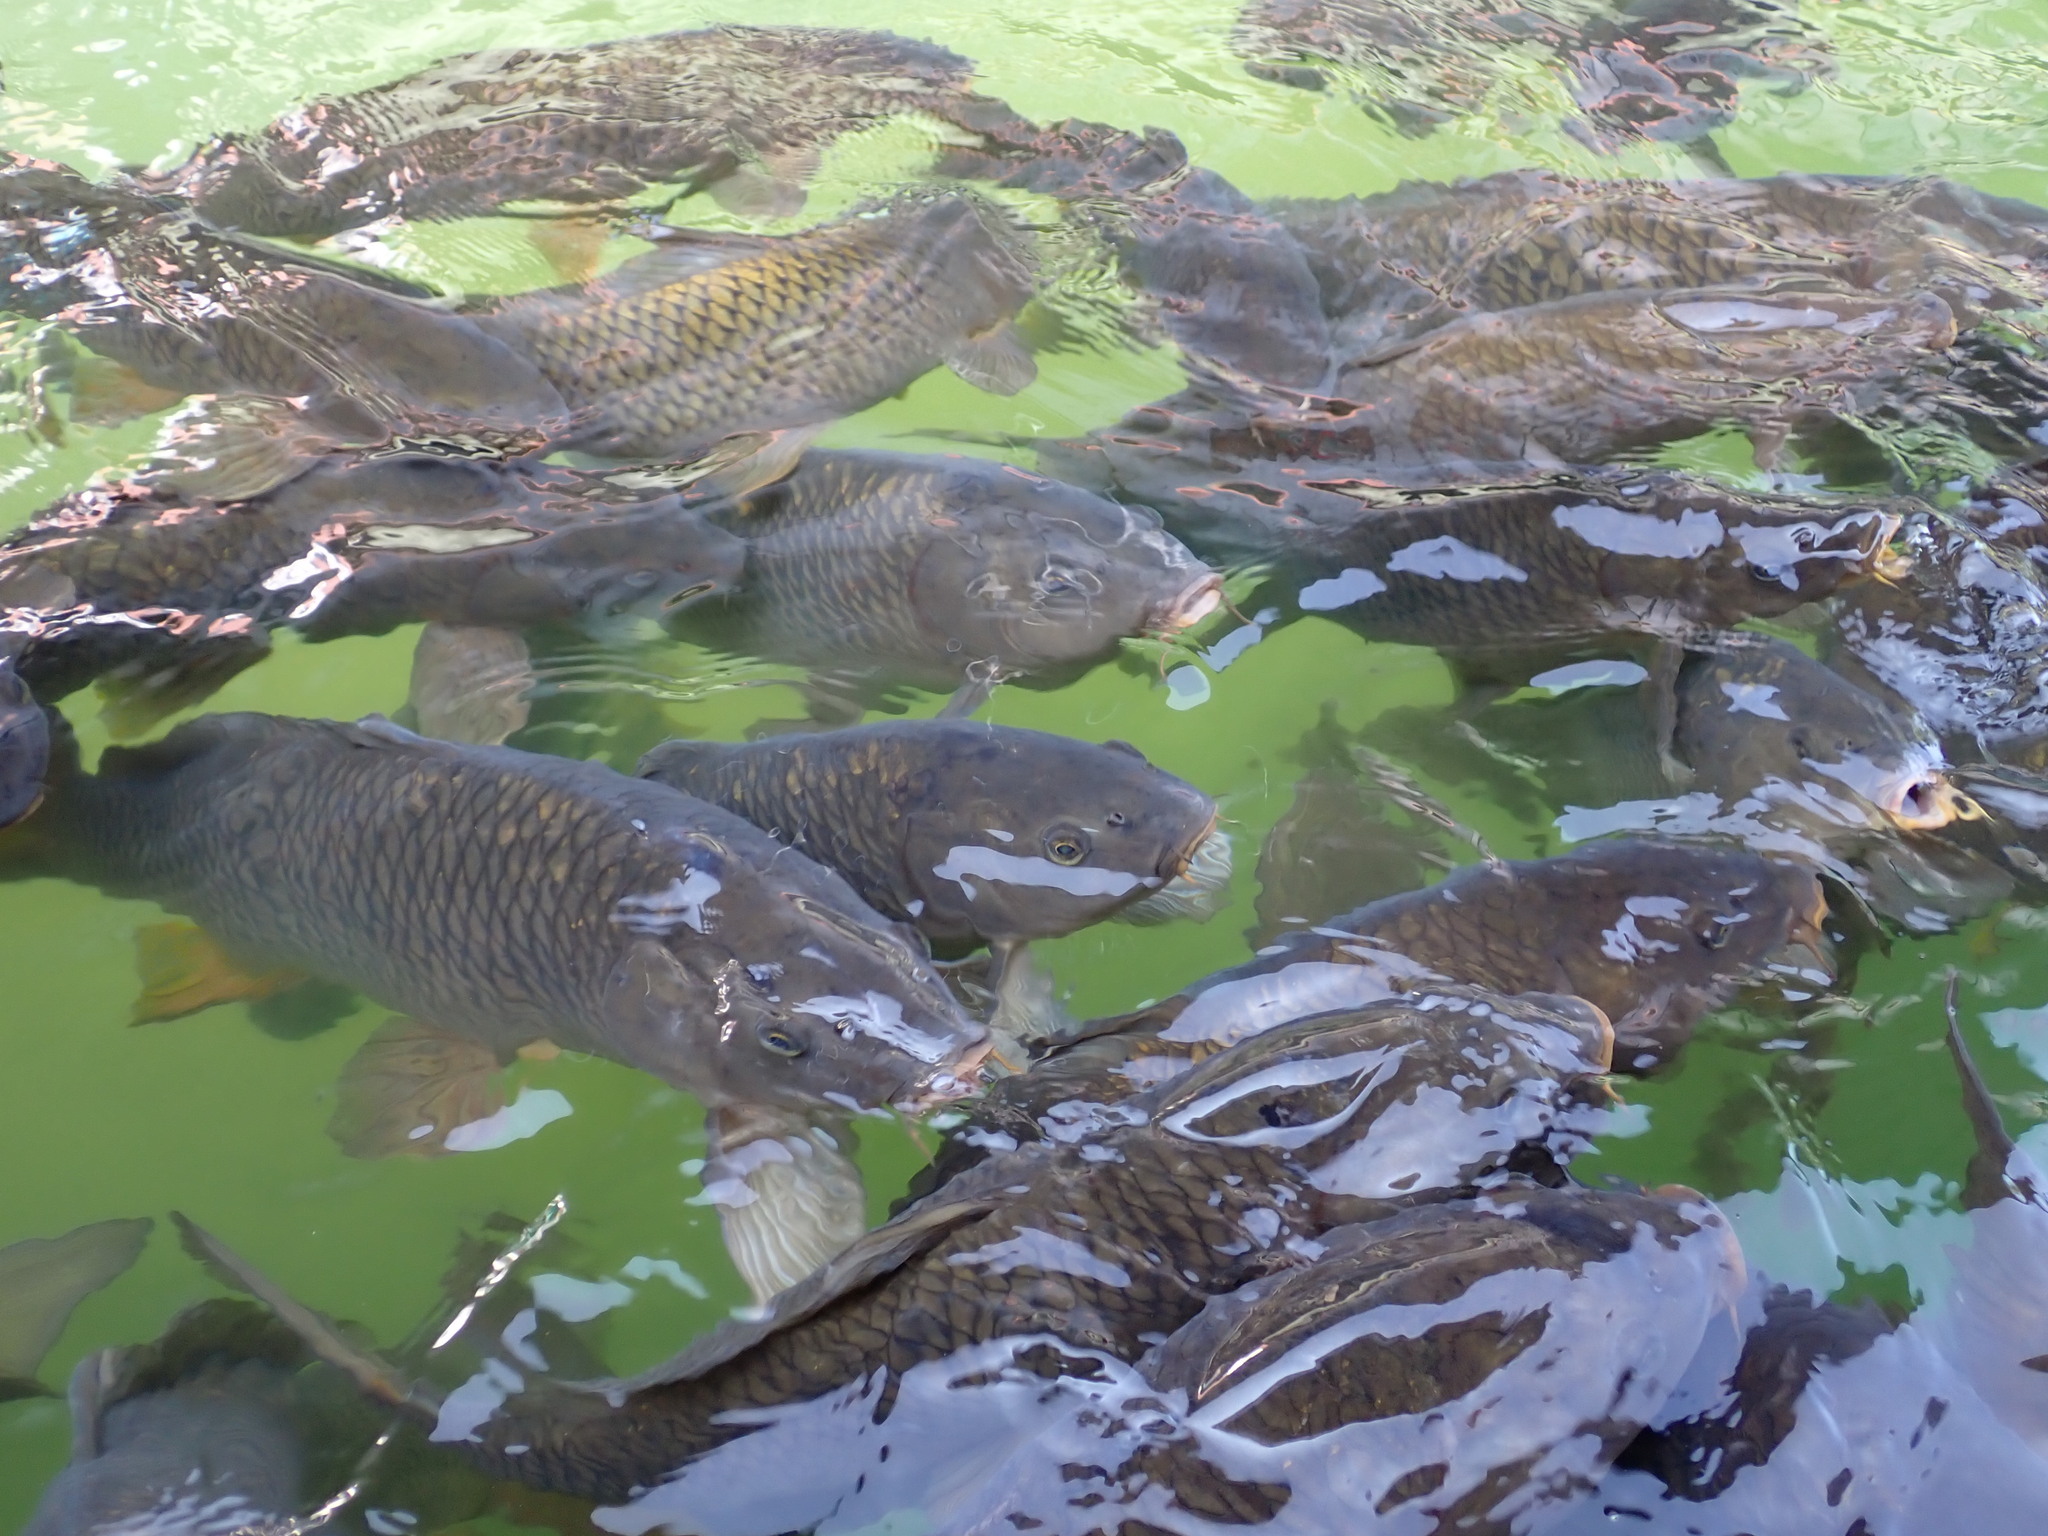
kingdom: Animalia
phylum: Chordata
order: Cypriniformes
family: Cyprinidae
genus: Cyprinus
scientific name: Cyprinus carpio
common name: Common carp
